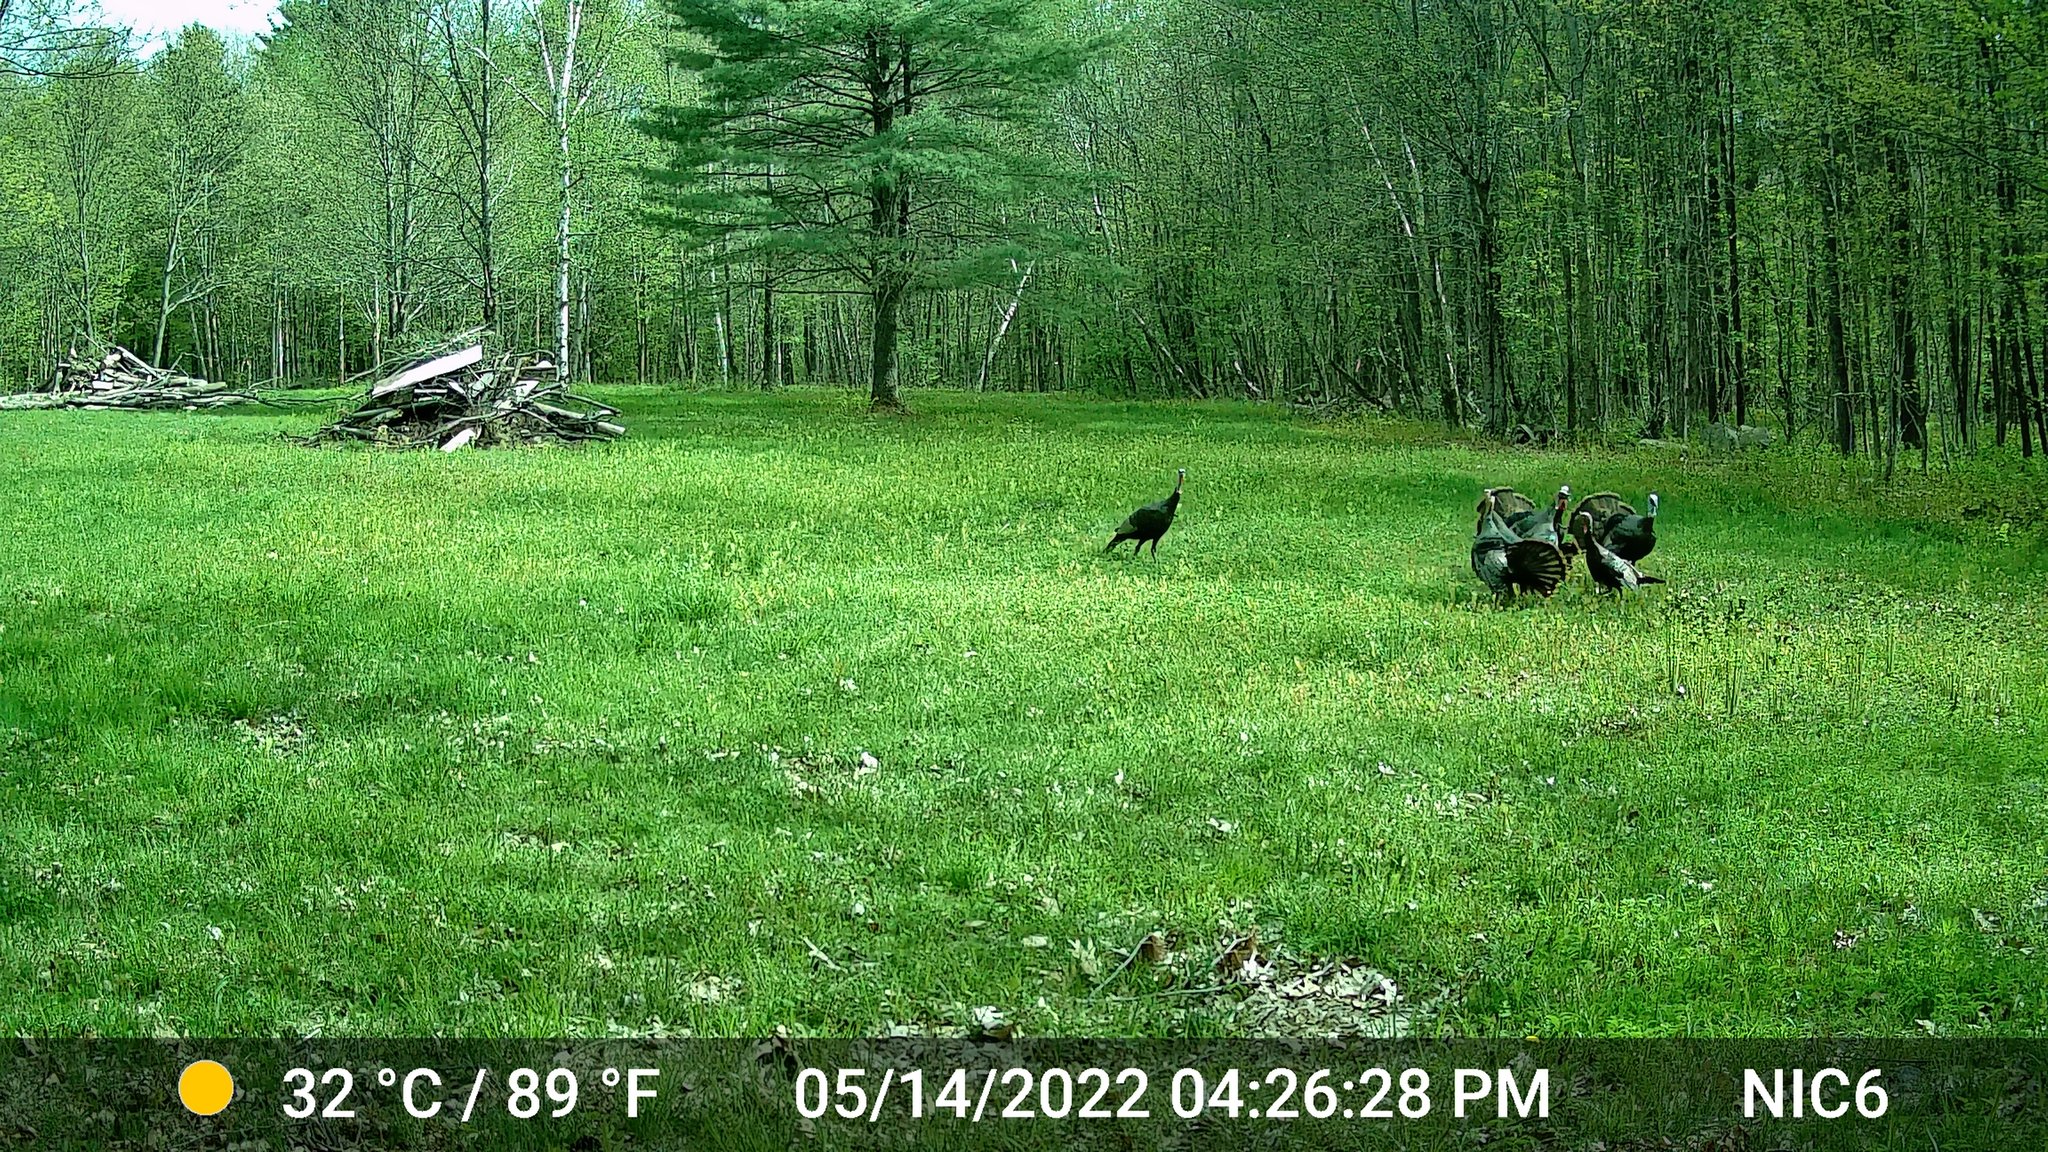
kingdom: Animalia
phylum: Chordata
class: Aves
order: Galliformes
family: Phasianidae
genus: Meleagris
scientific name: Meleagris gallopavo
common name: Wild turkey
